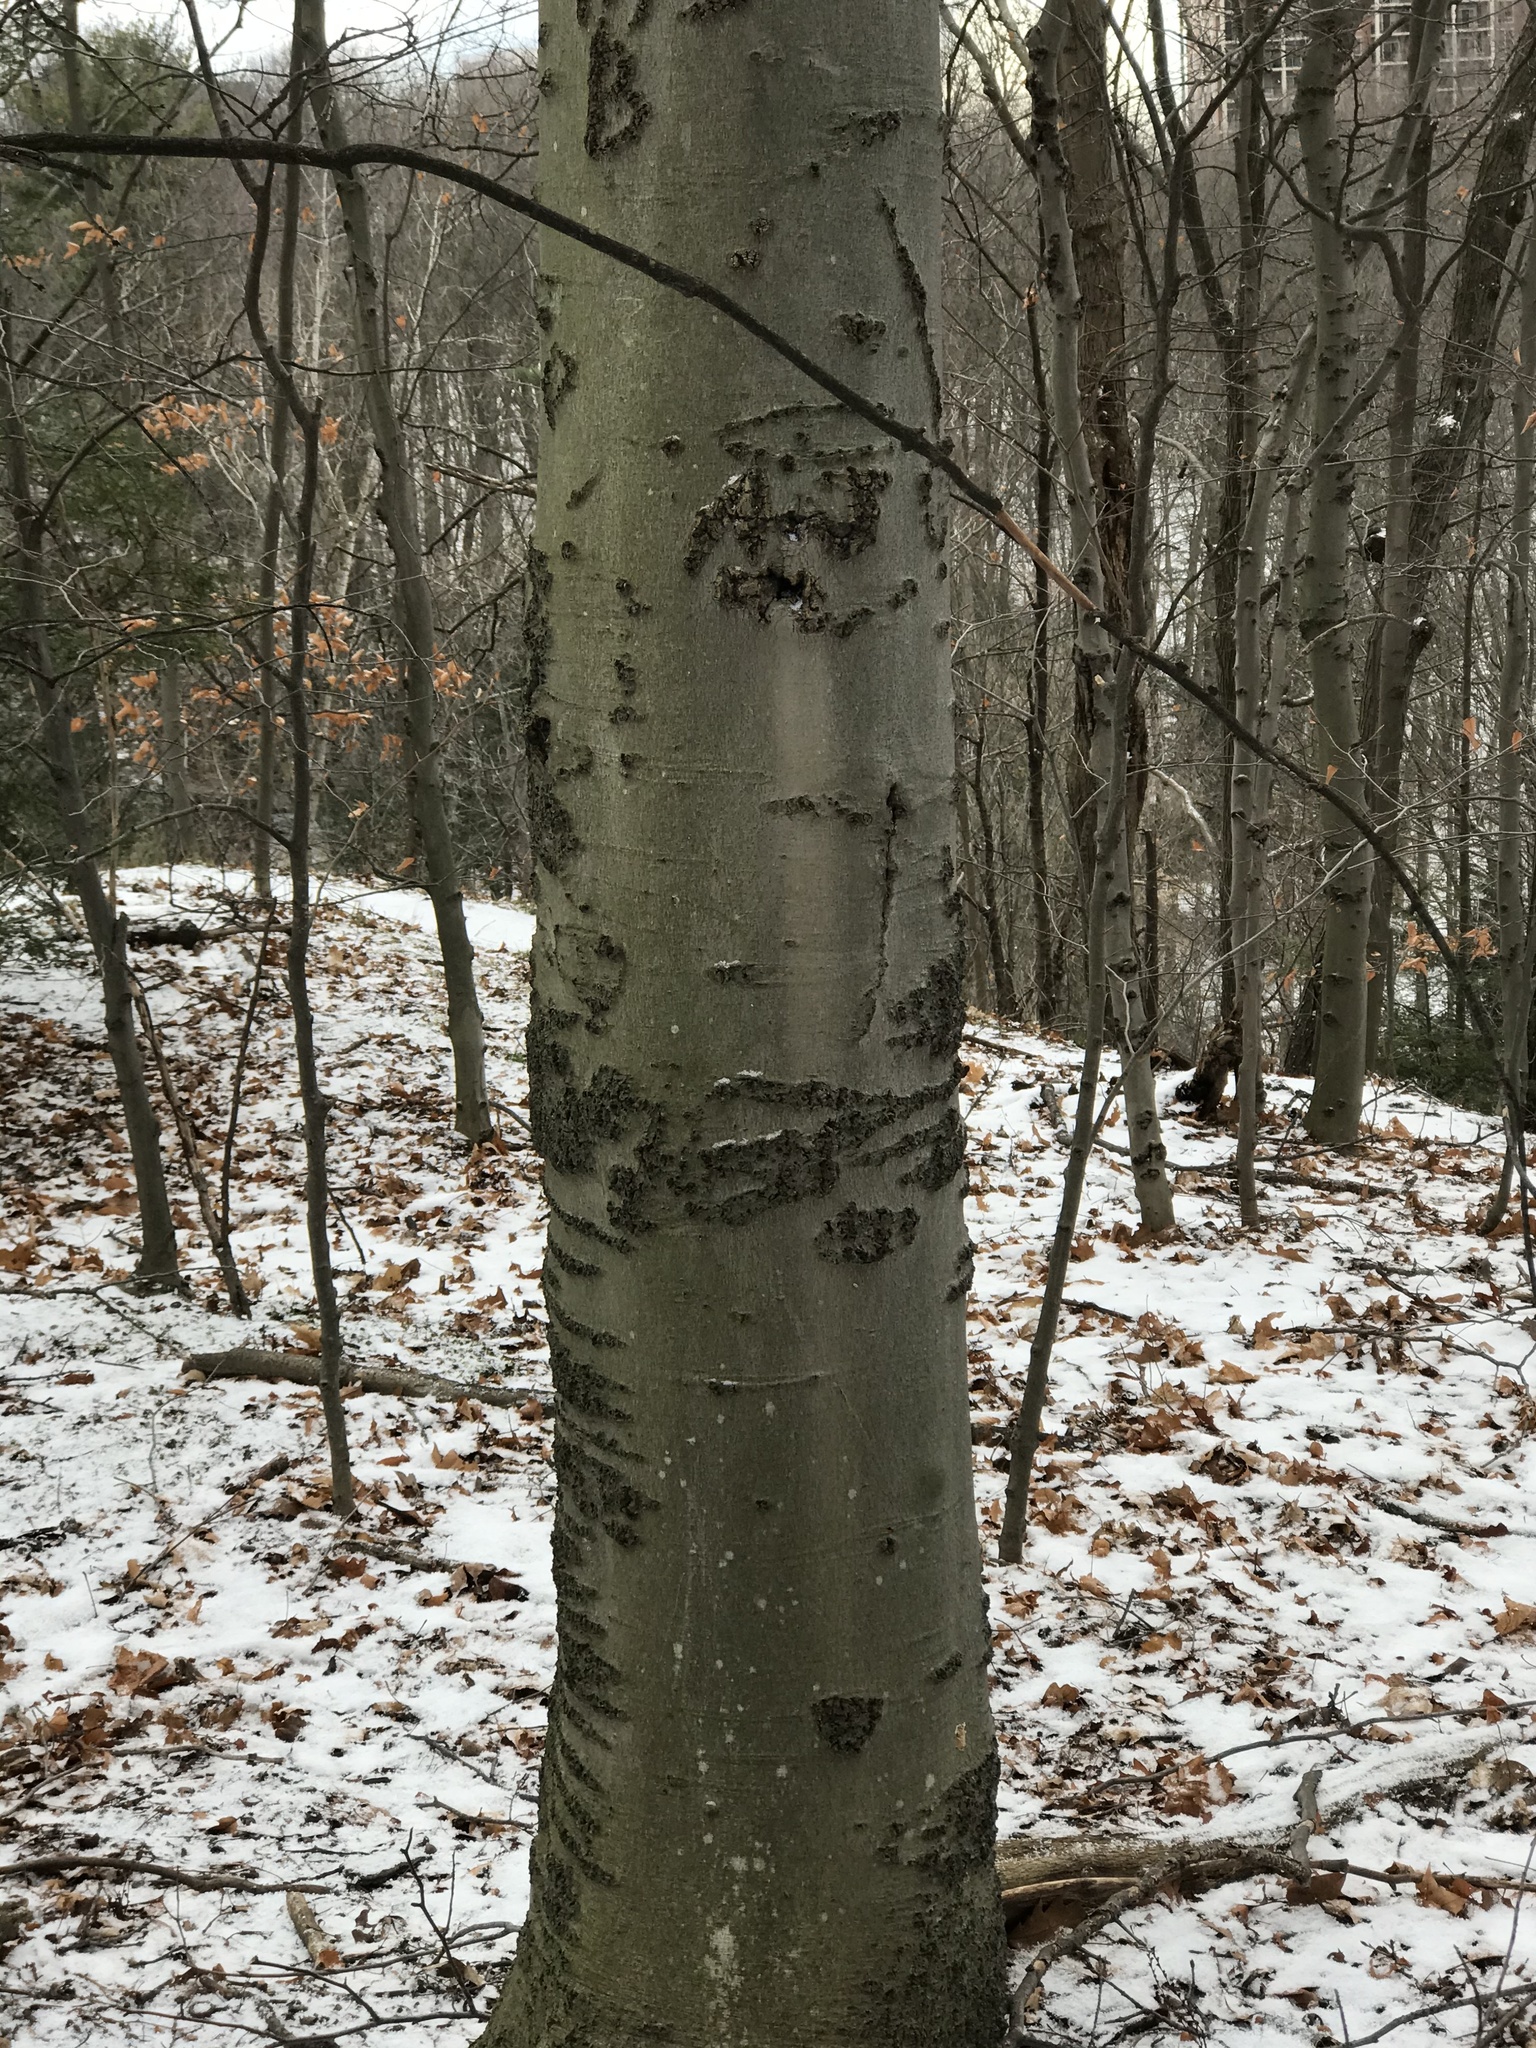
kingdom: Plantae
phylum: Tracheophyta
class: Magnoliopsida
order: Fagales
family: Fagaceae
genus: Fagus
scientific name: Fagus grandifolia
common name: American beech
